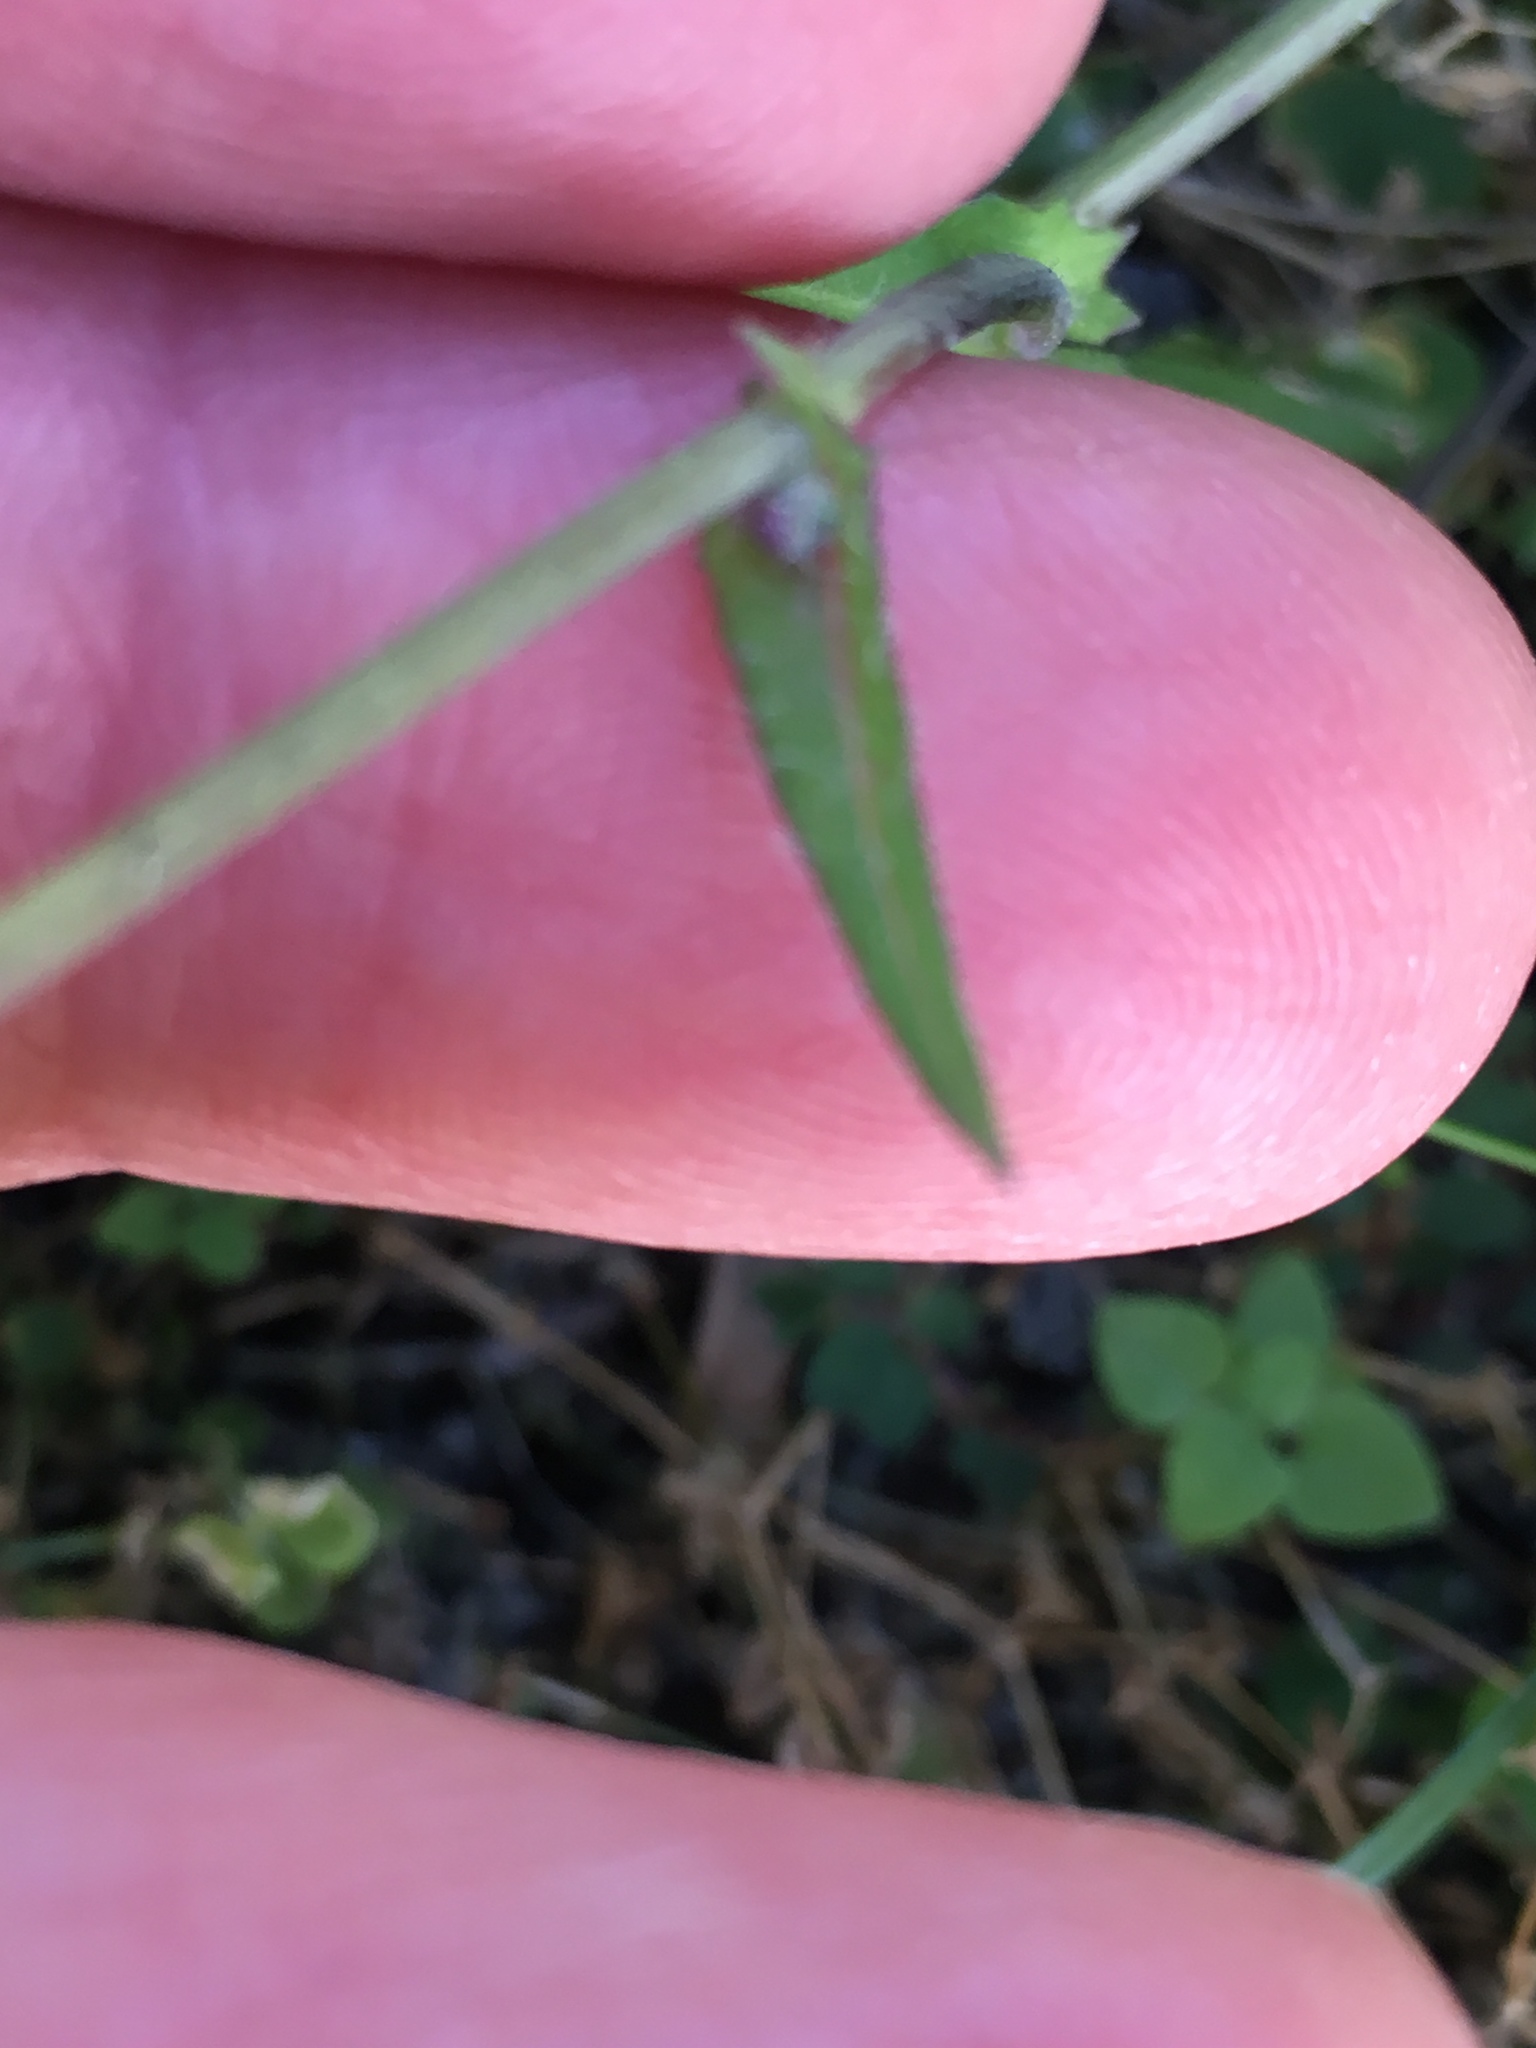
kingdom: Plantae
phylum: Tracheophyta
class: Magnoliopsida
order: Asterales
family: Asteraceae
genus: Emilia
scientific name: Emilia sonchifolia
